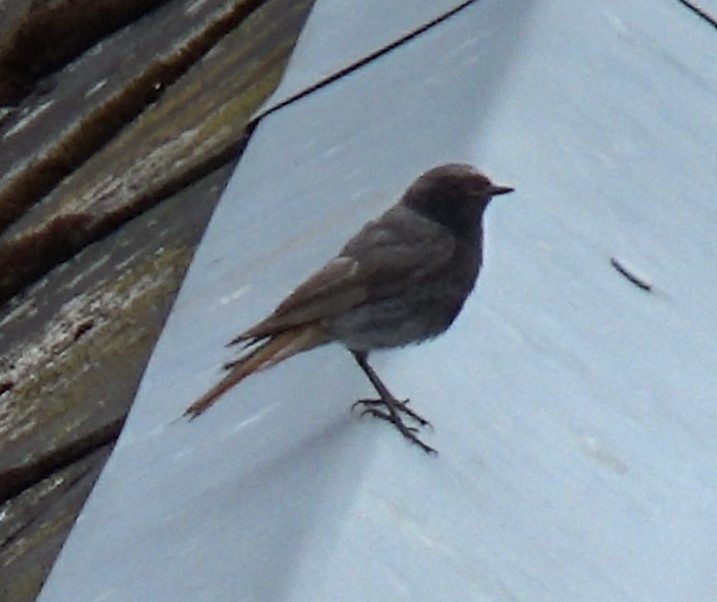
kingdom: Animalia
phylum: Chordata
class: Aves
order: Passeriformes
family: Muscicapidae
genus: Phoenicurus
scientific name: Phoenicurus ochruros
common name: Black redstart
